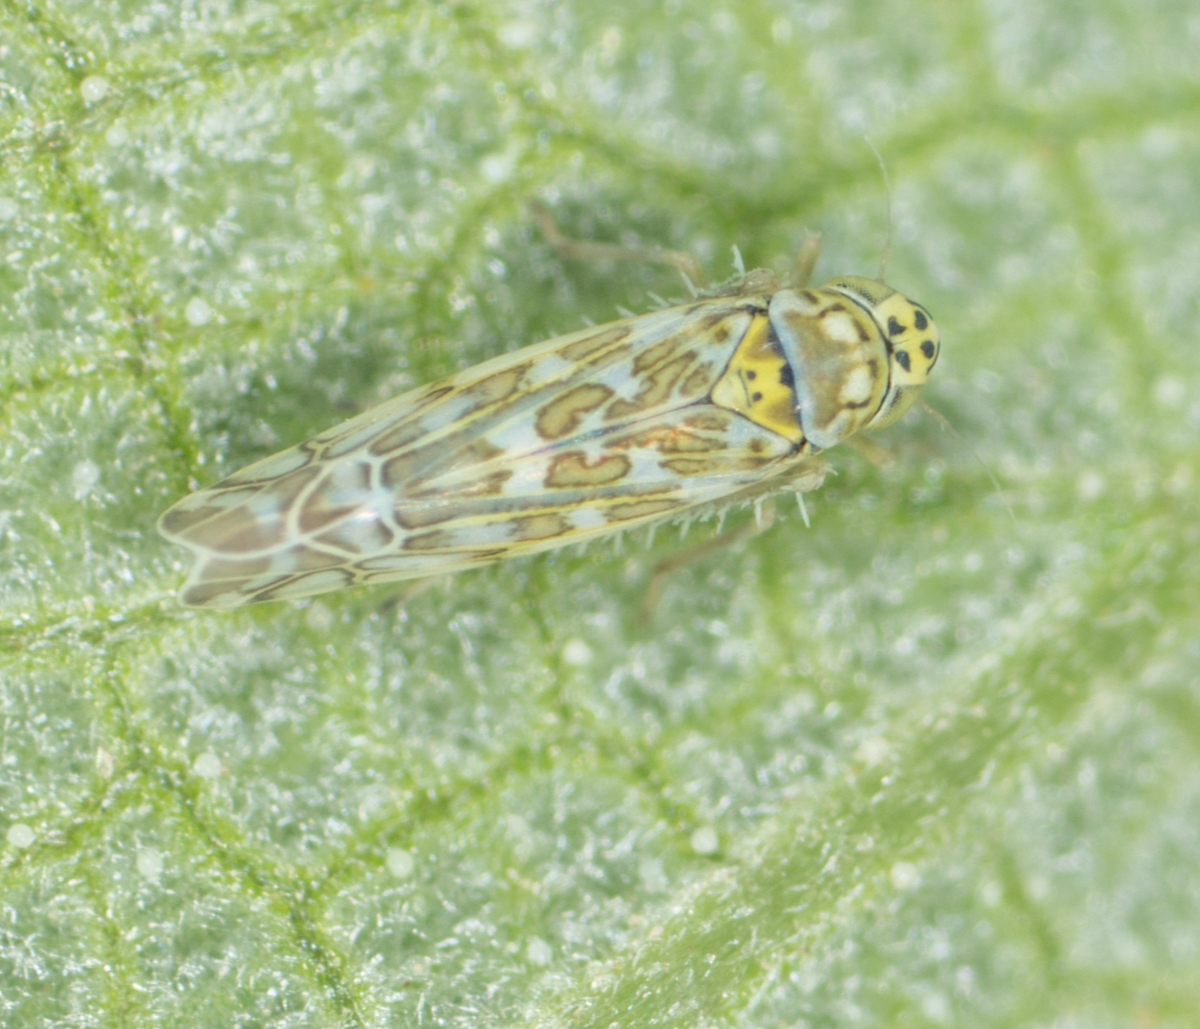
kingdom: Animalia
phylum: Arthropoda
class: Insecta
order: Hemiptera
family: Cicadellidae
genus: Eupteryx
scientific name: Eupteryx decemnotata
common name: Ligurian leafhopper
